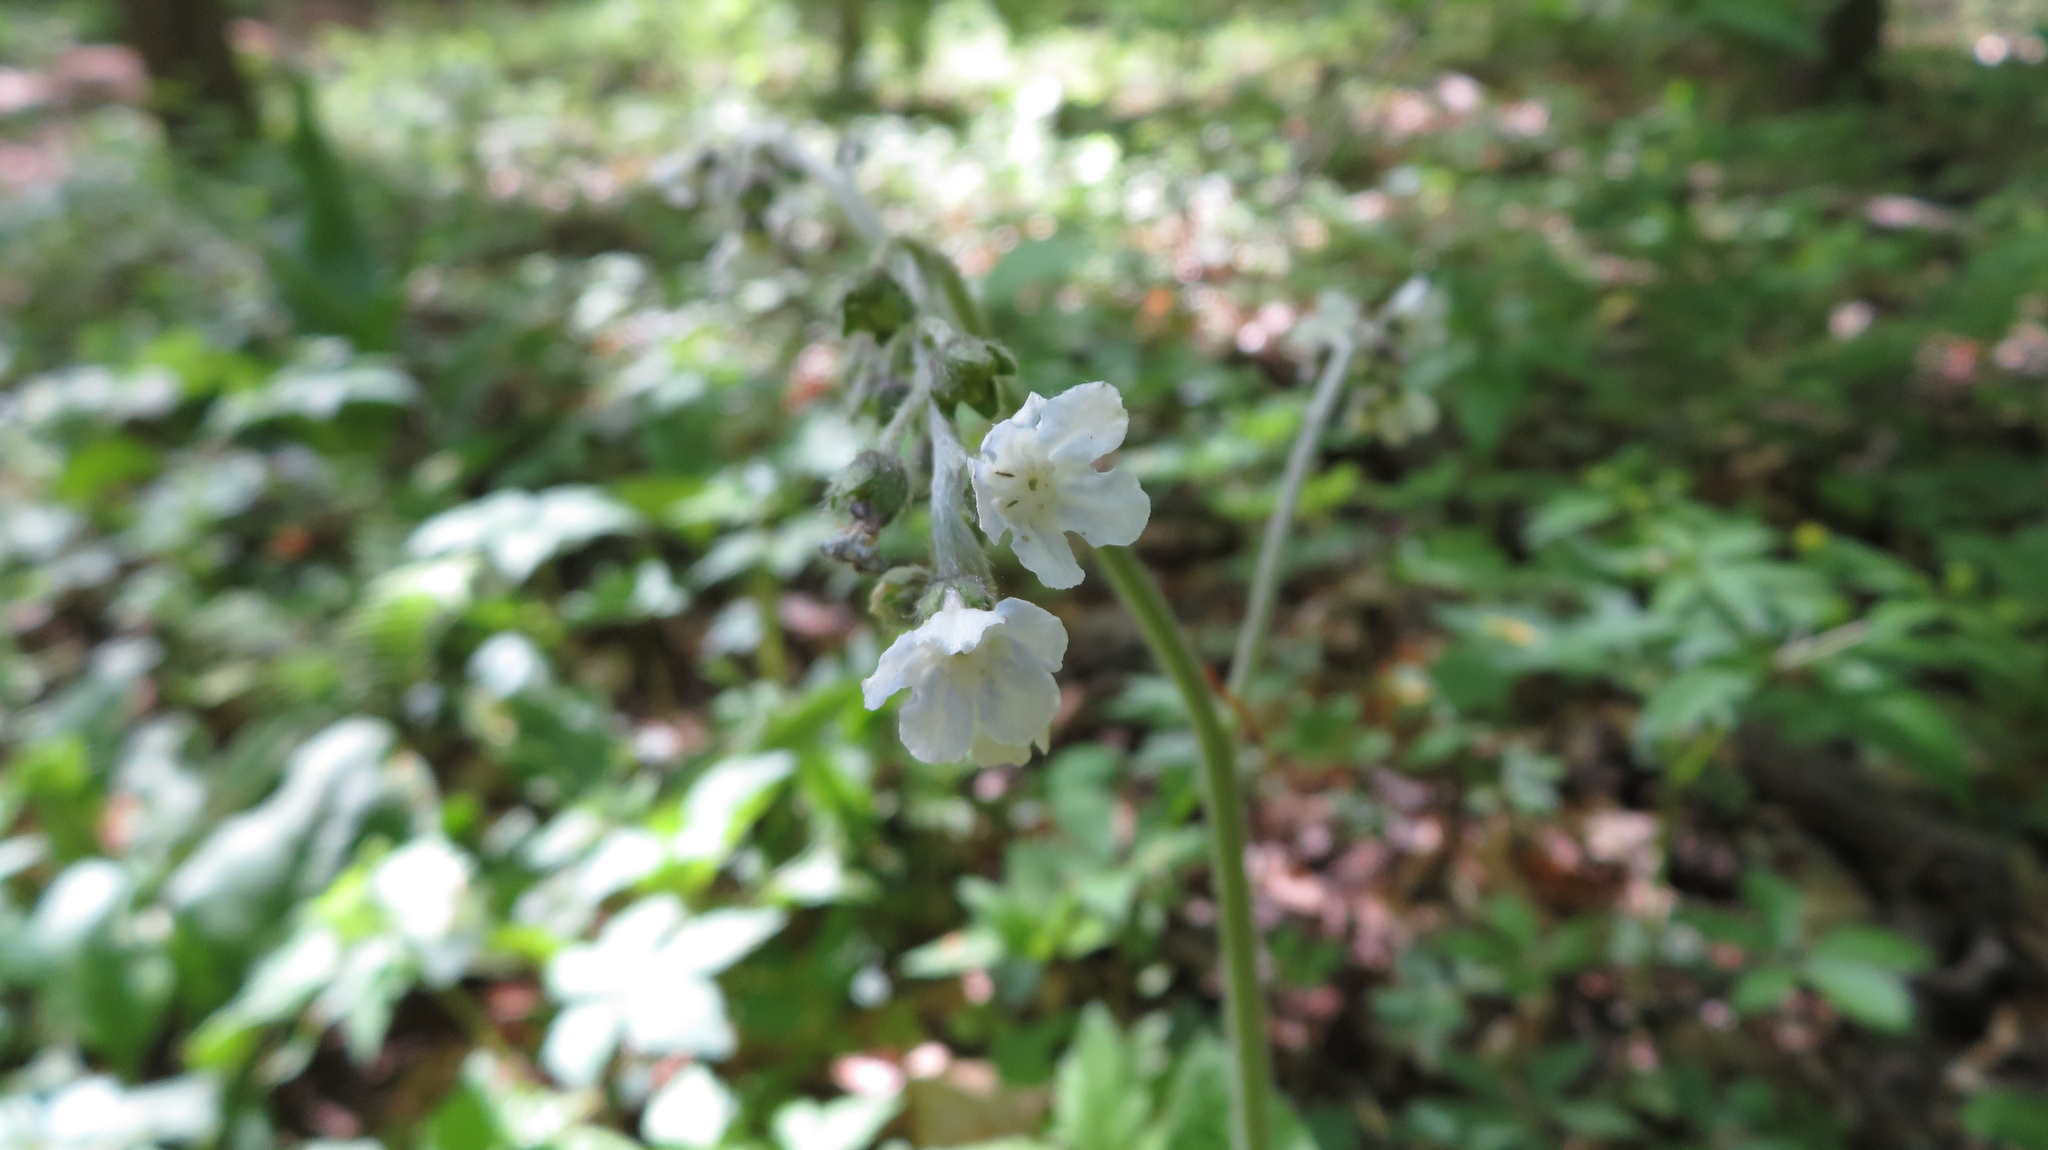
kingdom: Plantae
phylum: Tracheophyta
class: Magnoliopsida
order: Boraginales
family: Boraginaceae
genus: Andersonglossum
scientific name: Andersonglossum virginianum
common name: Wild comfrey
